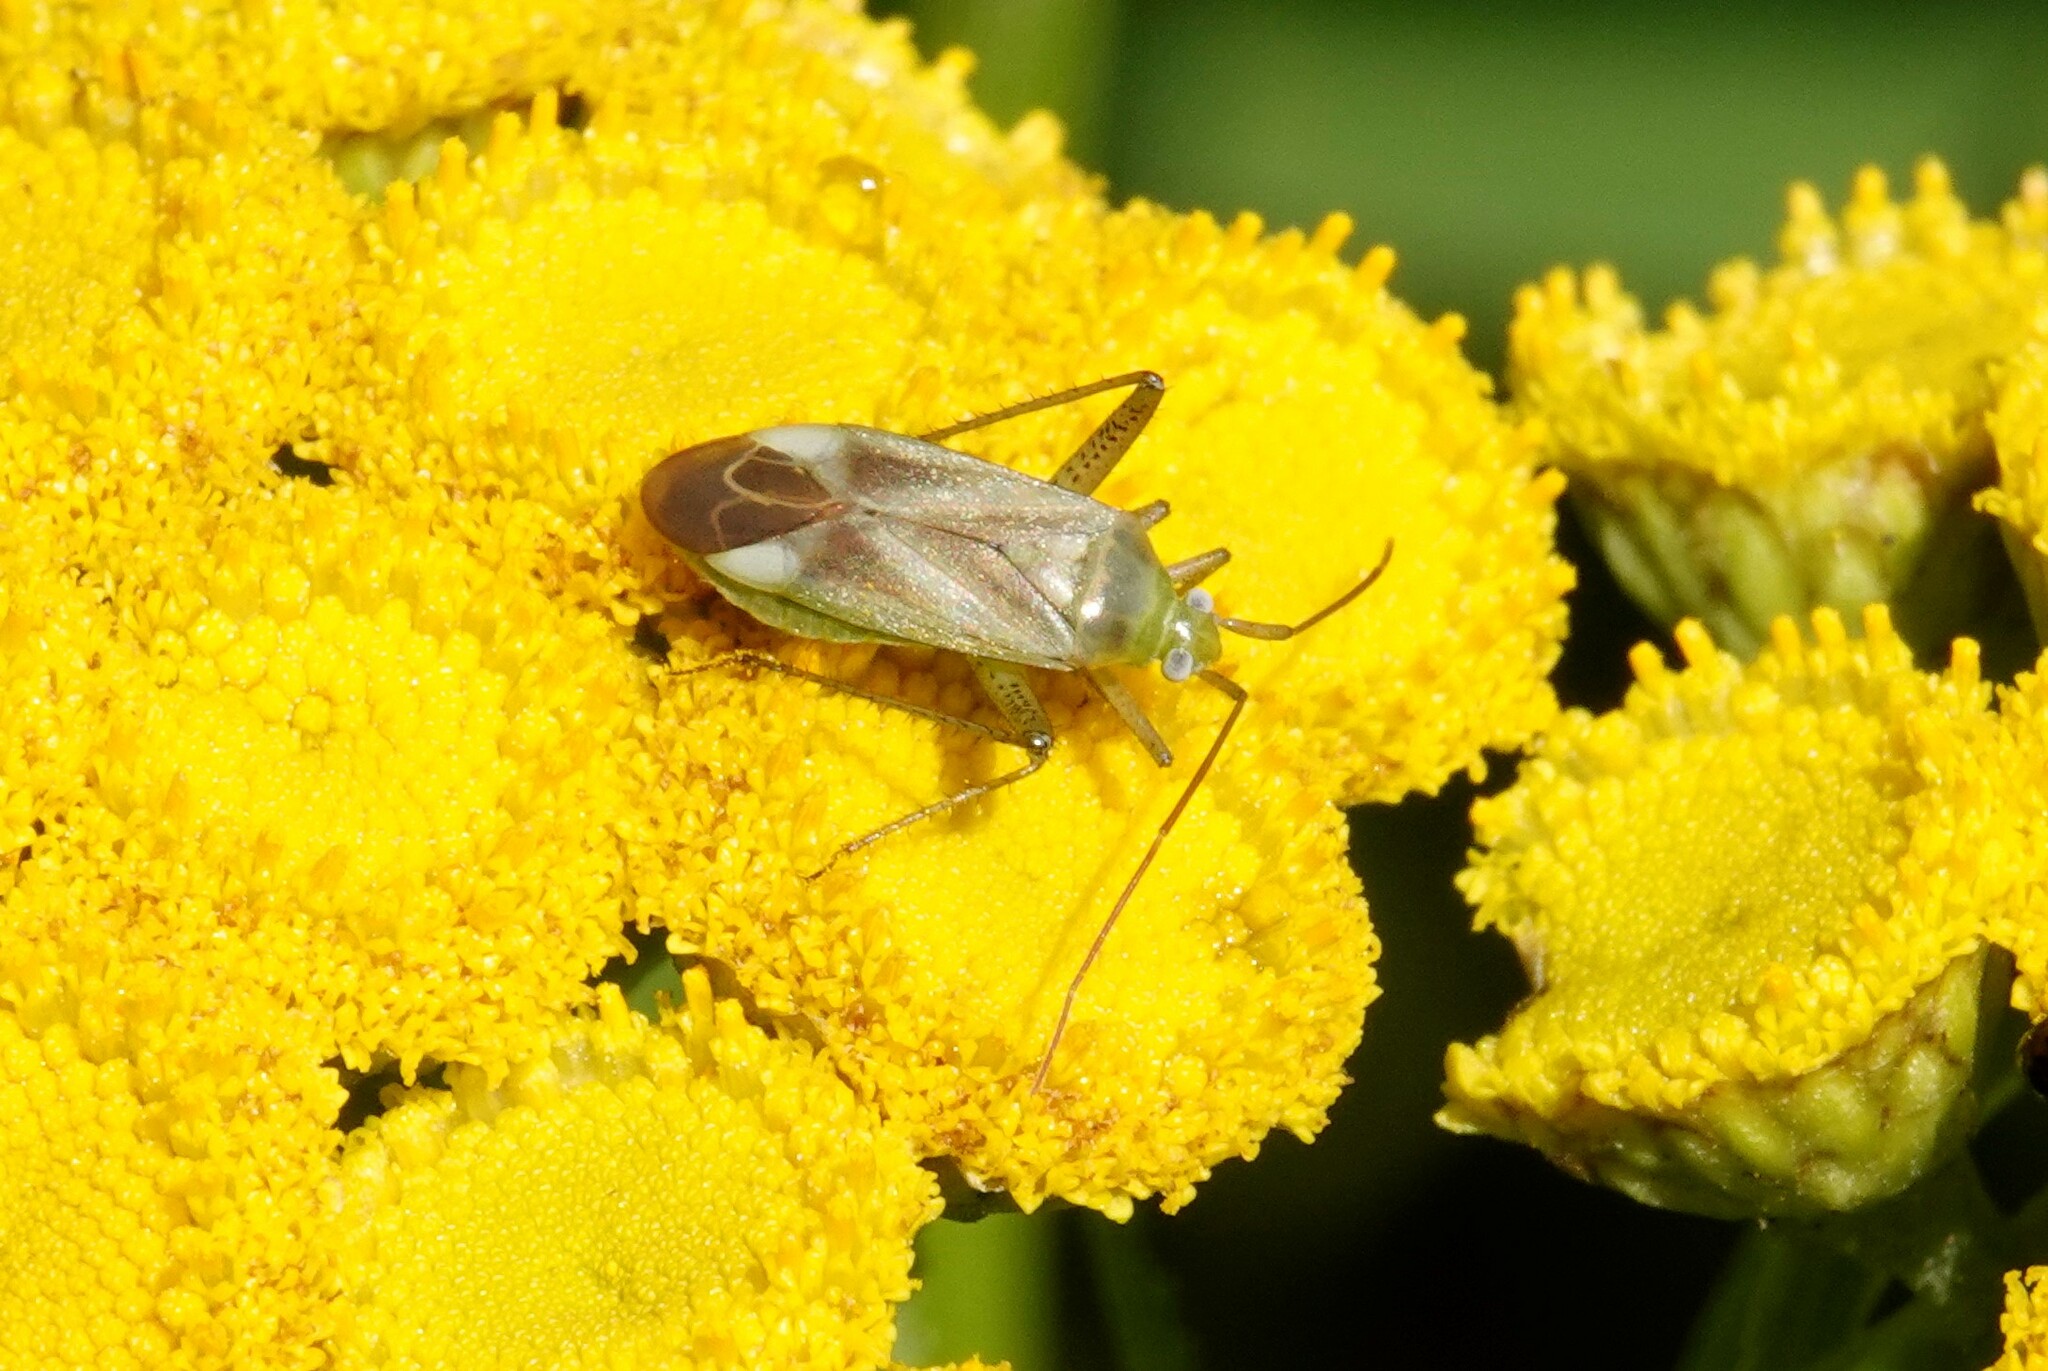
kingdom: Animalia
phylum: Arthropoda
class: Insecta
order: Hemiptera
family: Miridae
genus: Adelphocoris
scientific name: Adelphocoris lineolatus
